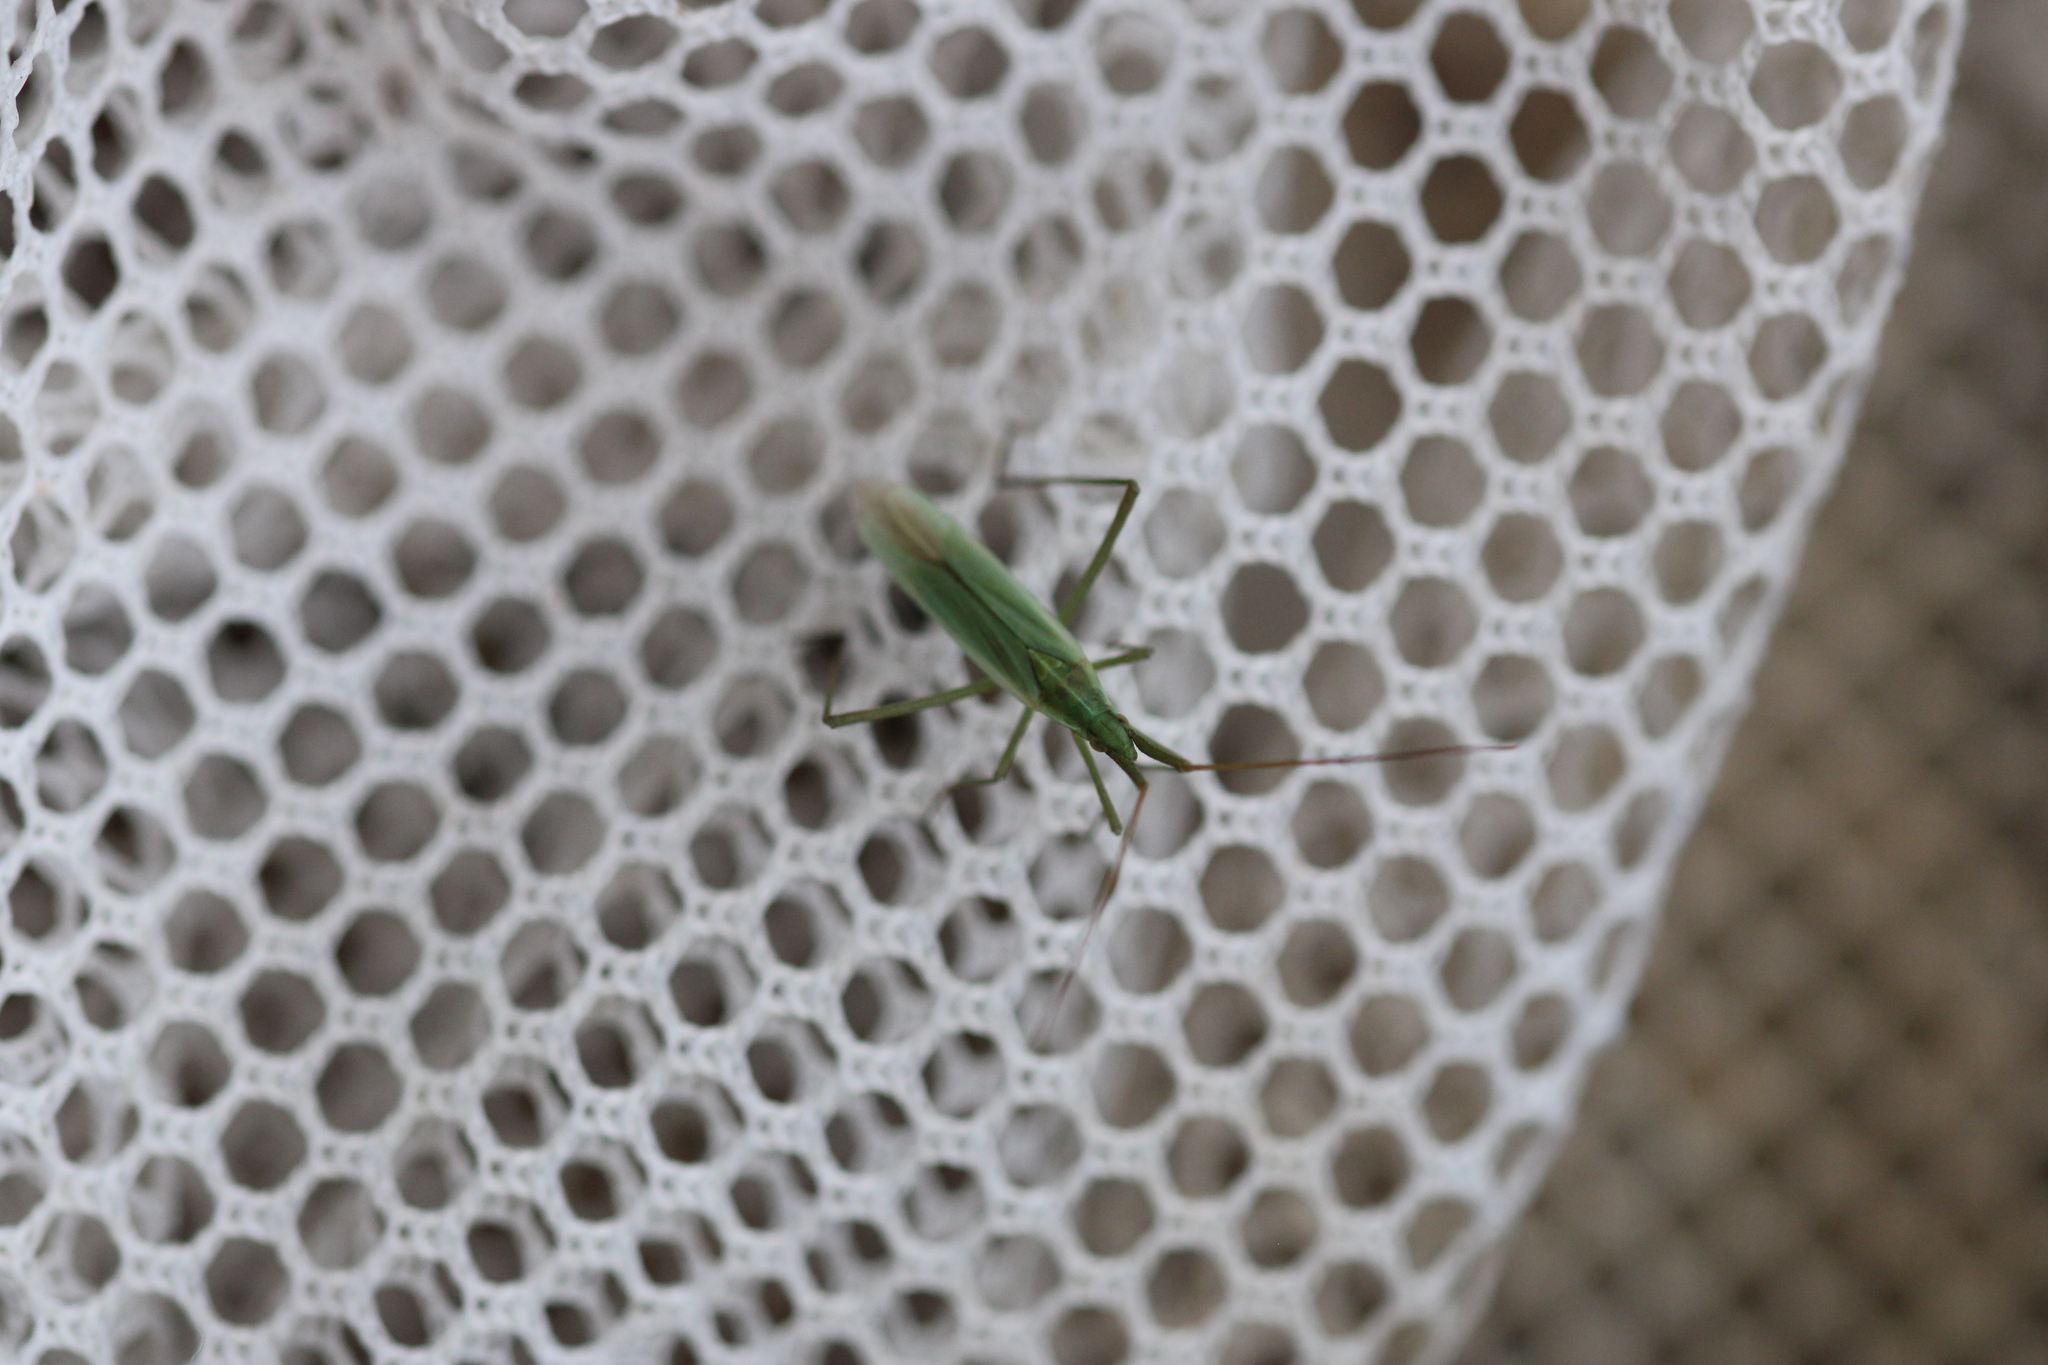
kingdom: Animalia
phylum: Arthropoda
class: Insecta
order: Hemiptera
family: Miridae
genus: Megaloceroea
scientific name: Megaloceroea recticornis
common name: Plant bug
